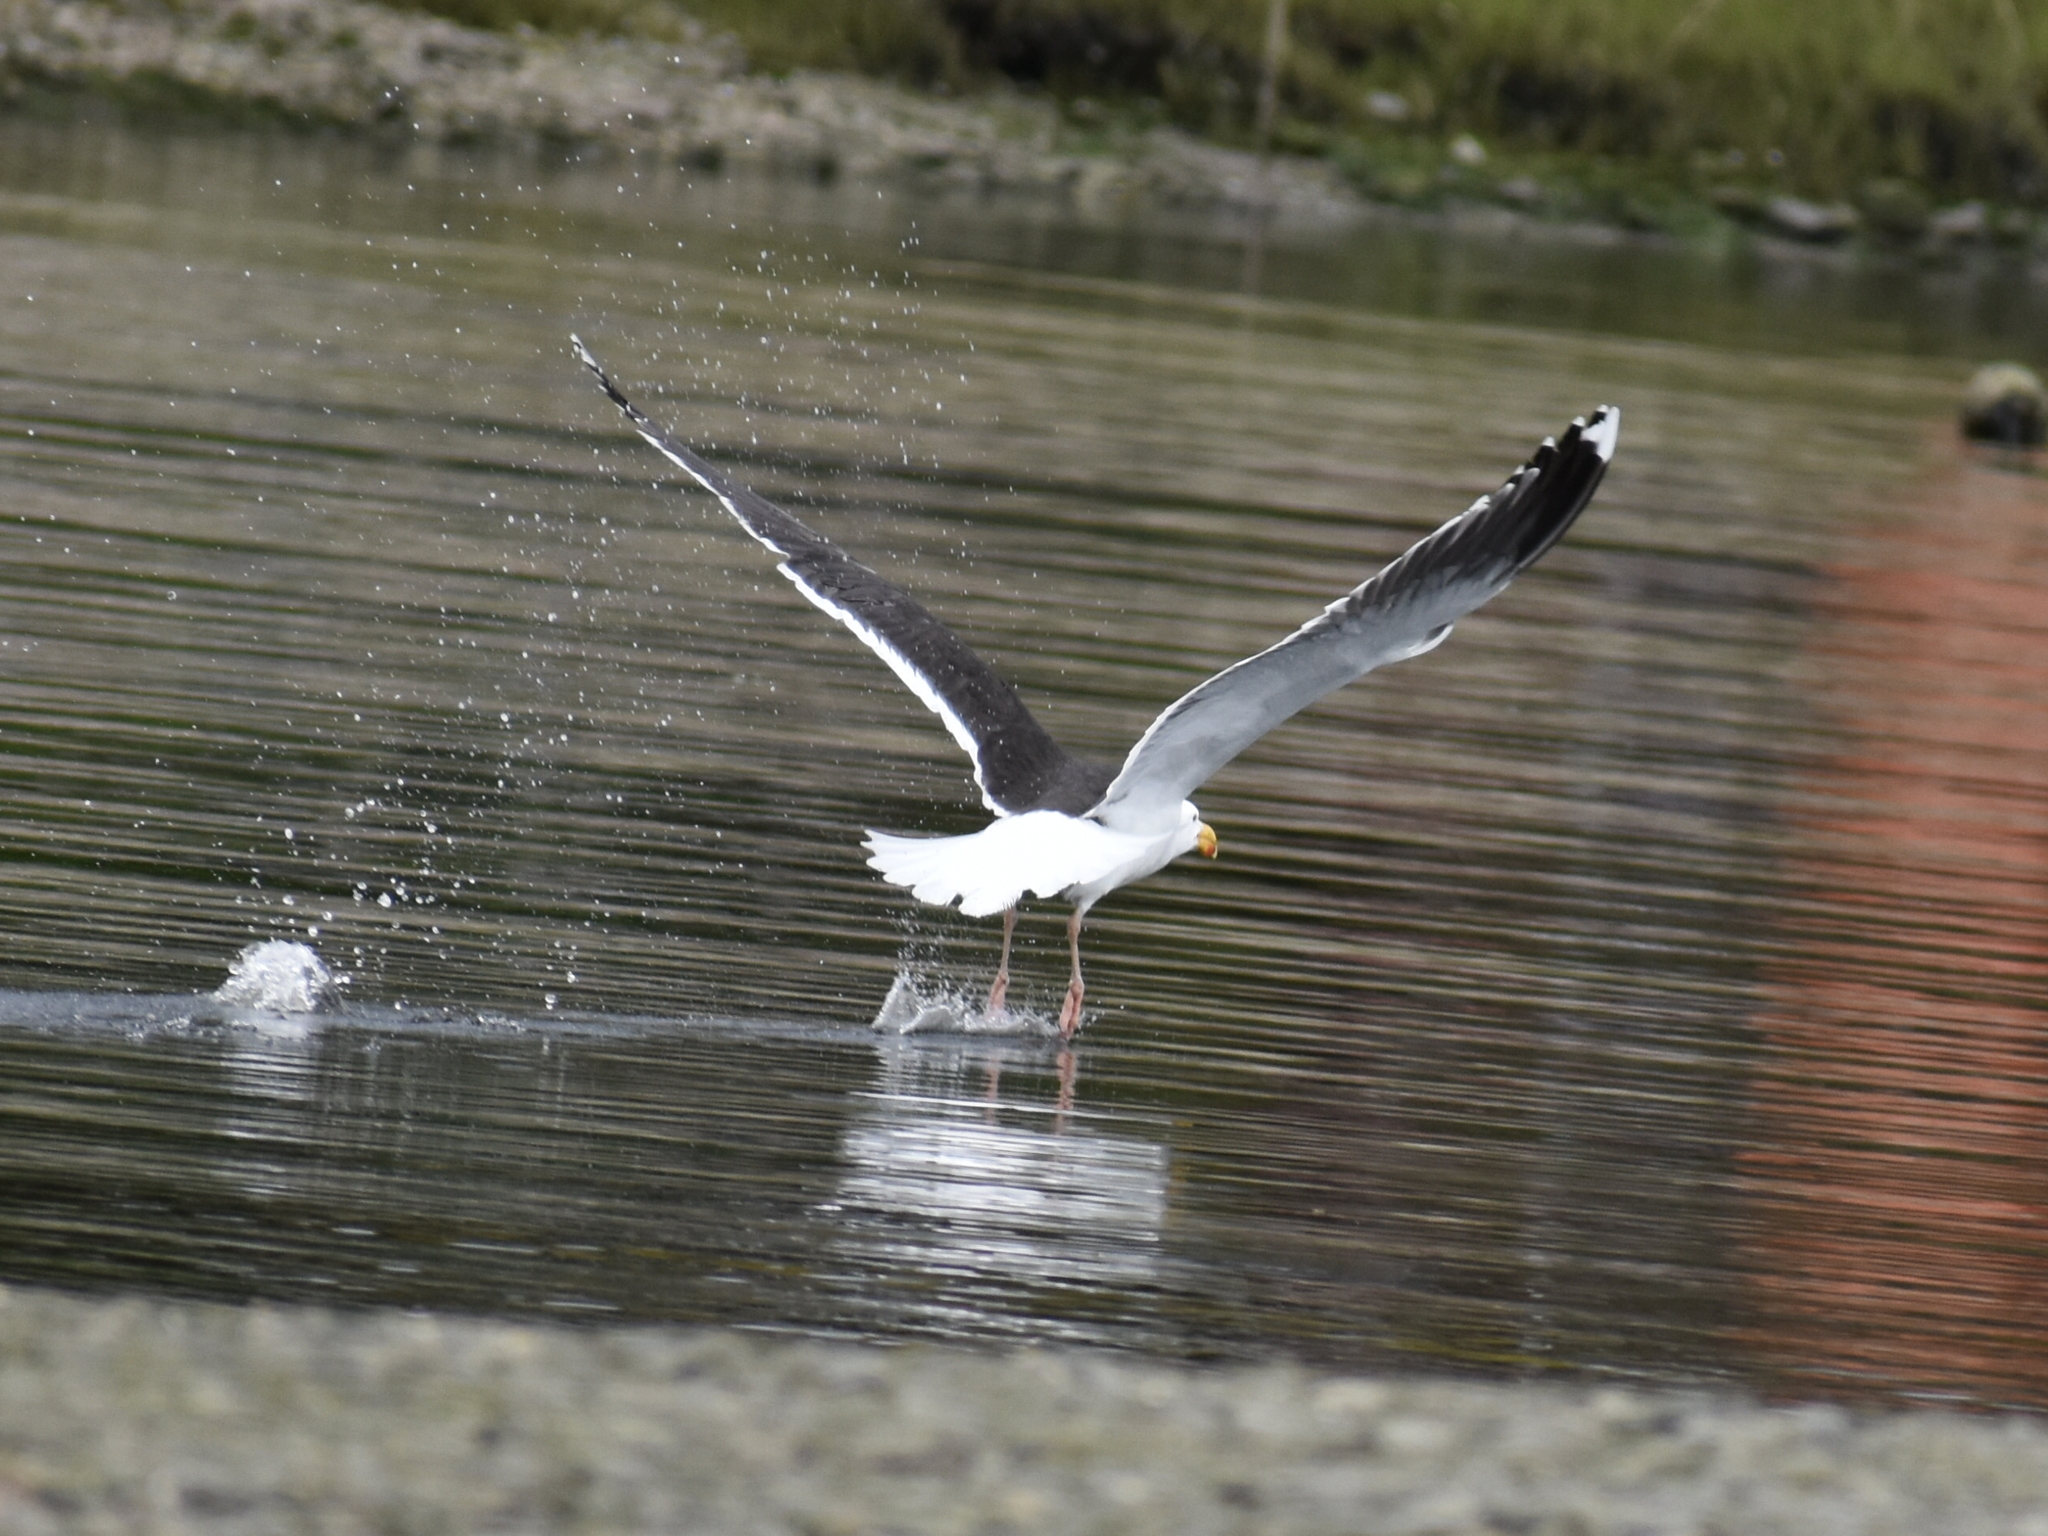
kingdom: Animalia
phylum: Chordata
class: Aves
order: Charadriiformes
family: Laridae
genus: Larus
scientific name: Larus marinus
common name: Great black-backed gull
